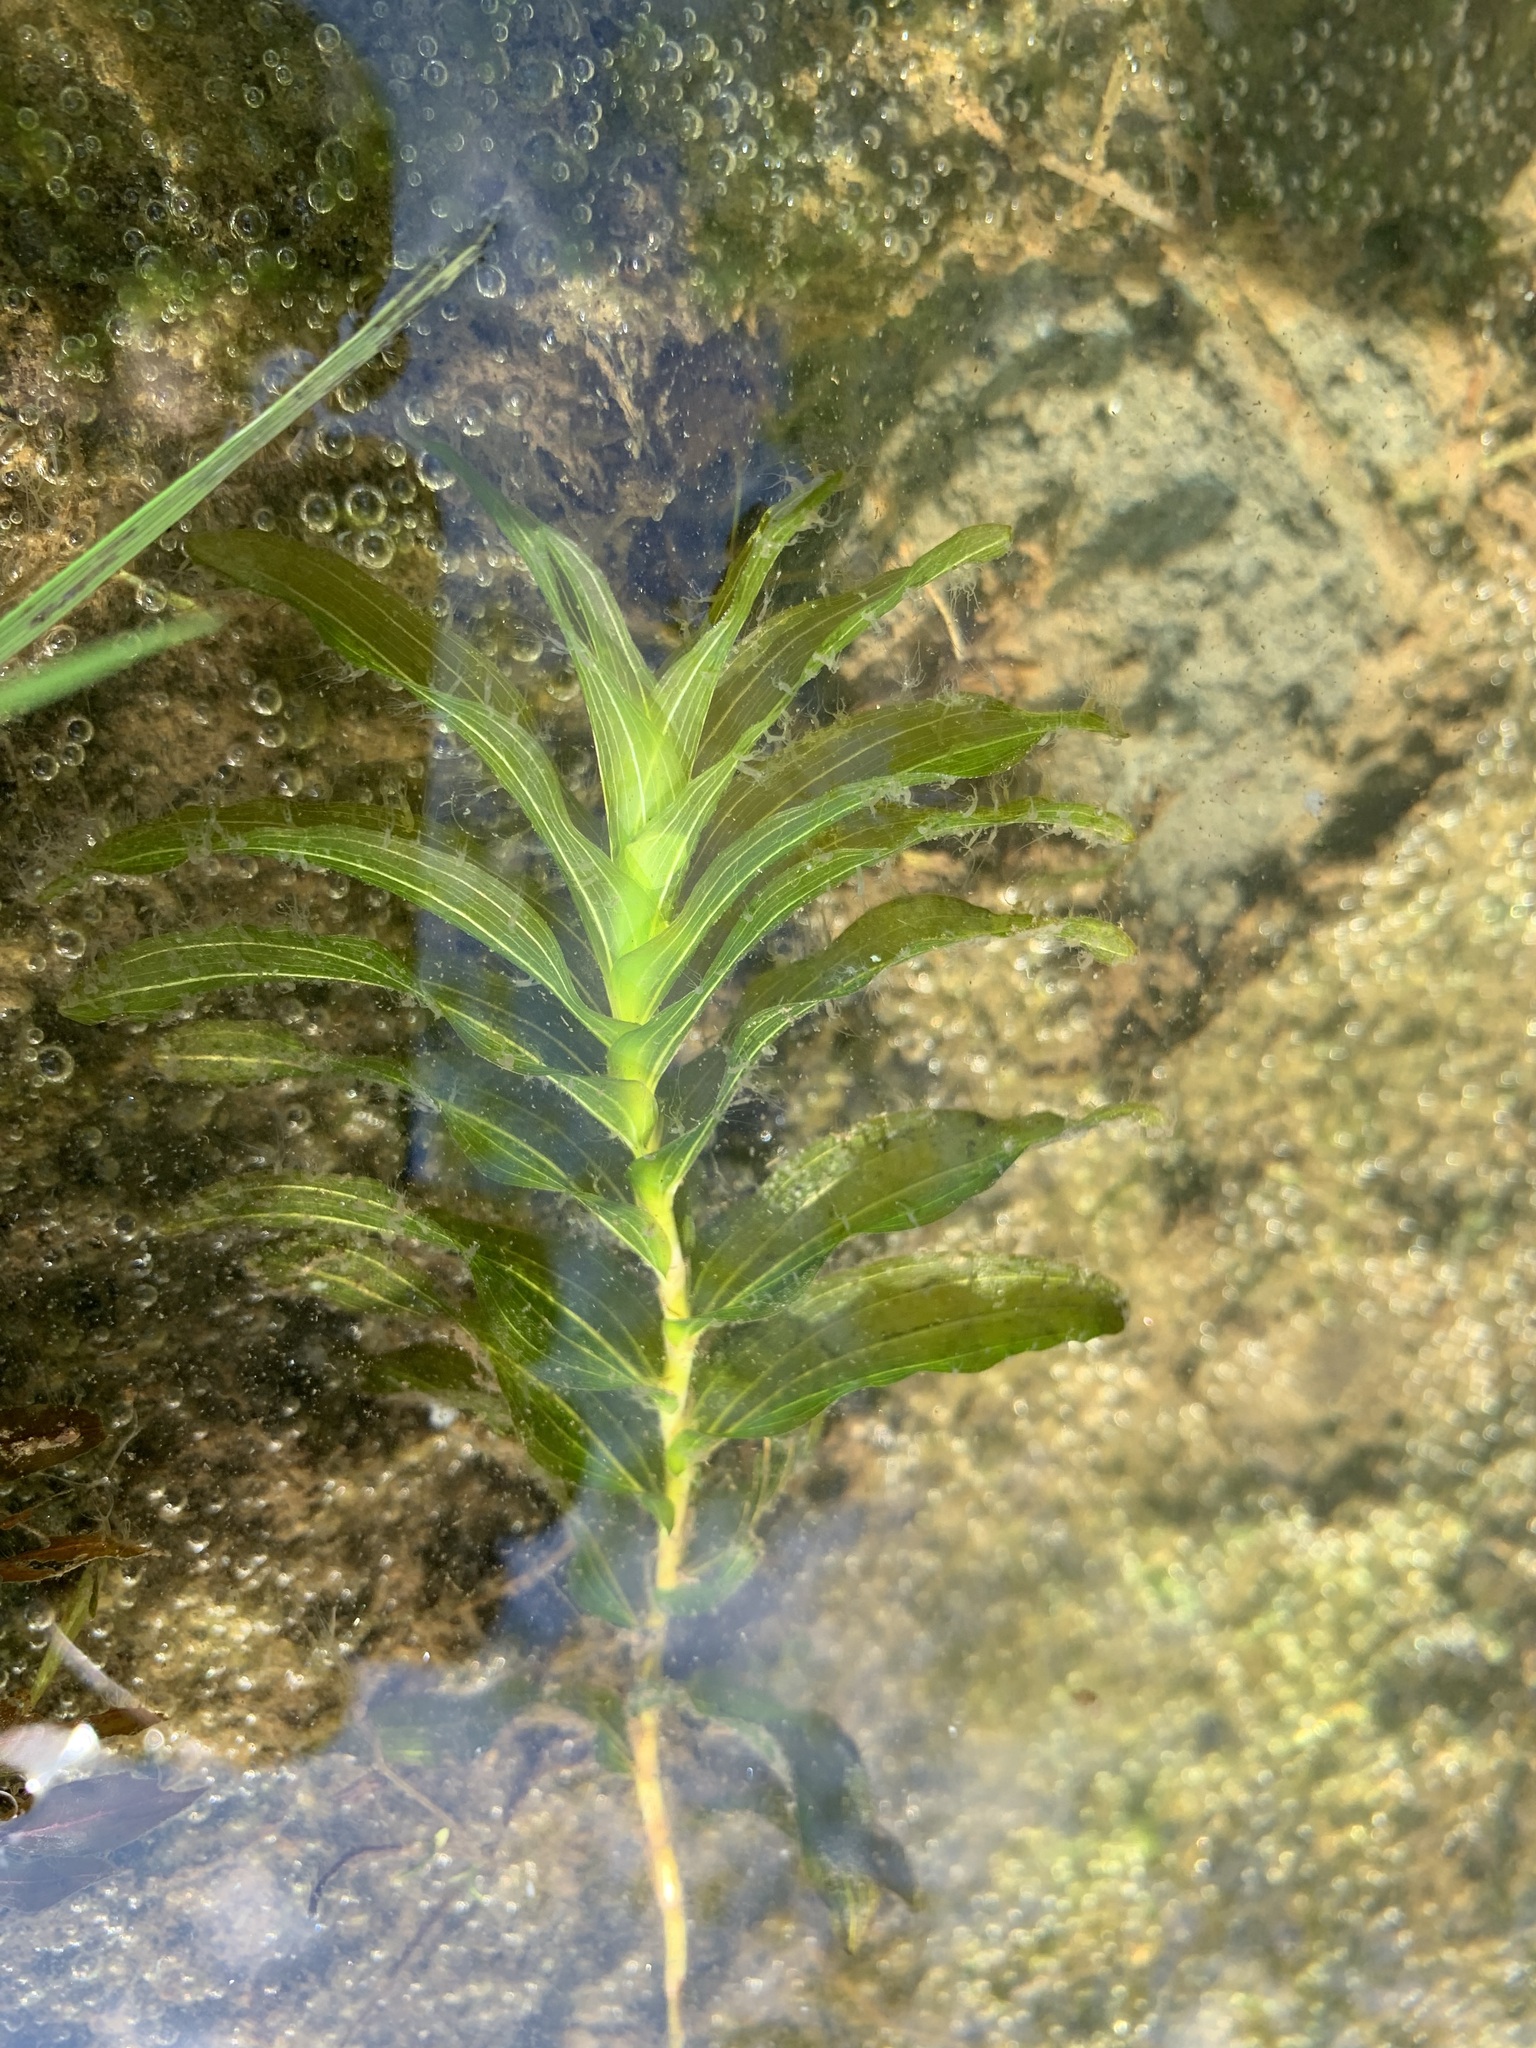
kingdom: Plantae
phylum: Tracheophyta
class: Liliopsida
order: Alismatales
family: Potamogetonaceae
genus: Potamogeton
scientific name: Potamogeton nitens
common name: Pondweed
